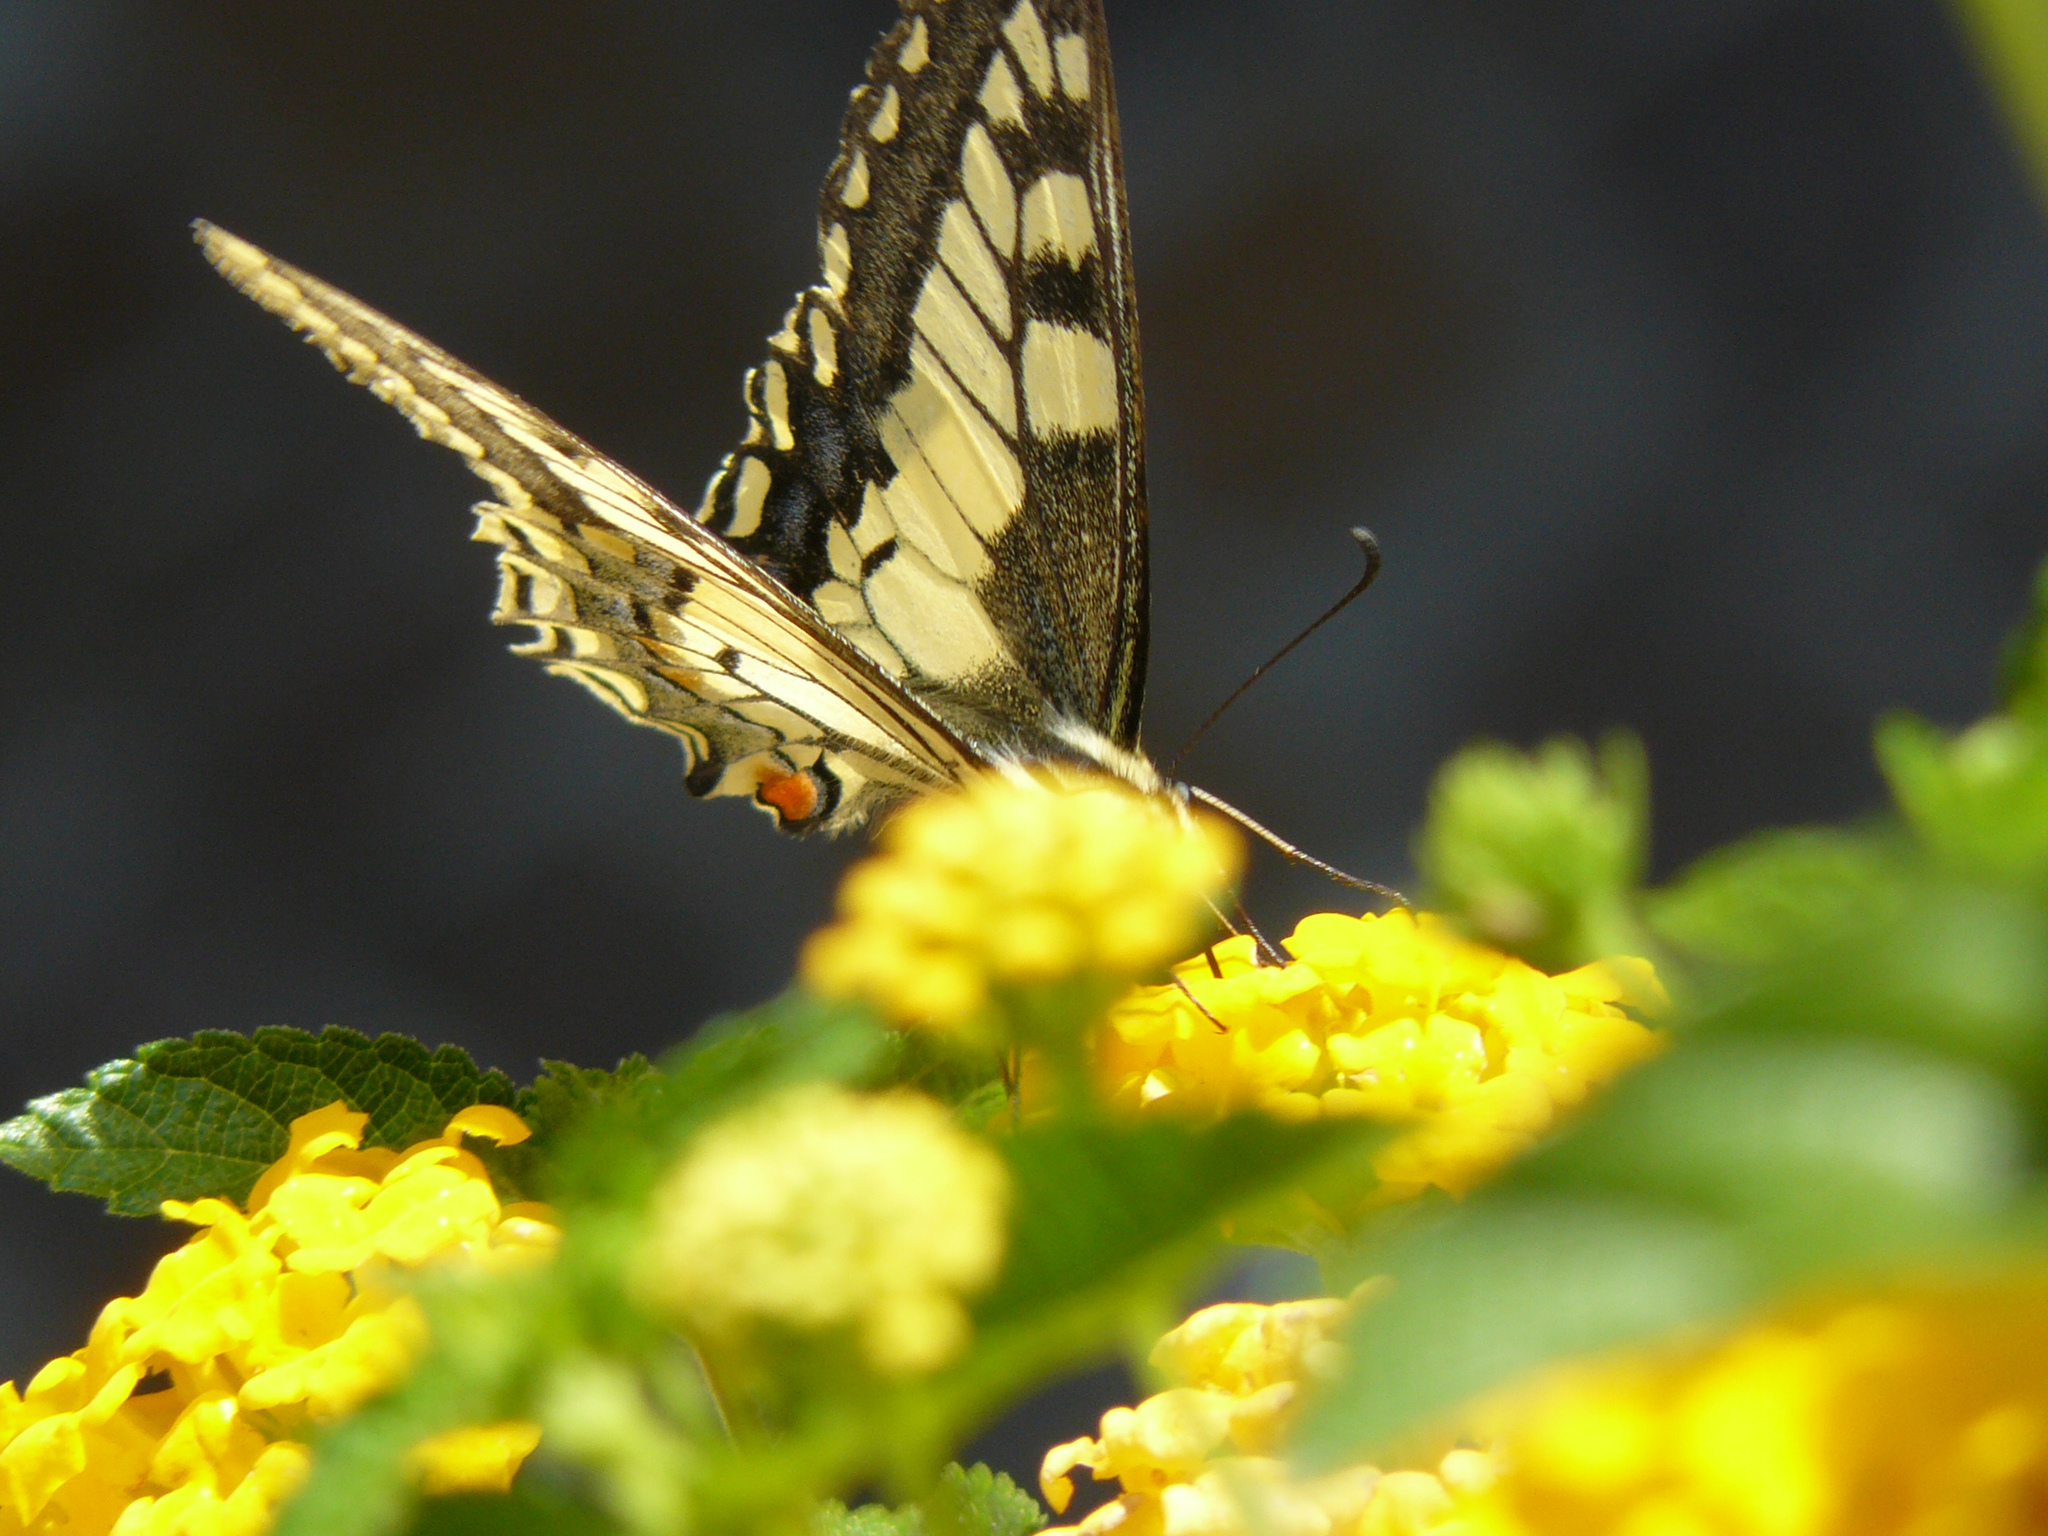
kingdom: Animalia
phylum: Arthropoda
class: Insecta
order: Lepidoptera
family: Papilionidae
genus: Papilio
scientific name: Papilio machaon
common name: Swallowtail
